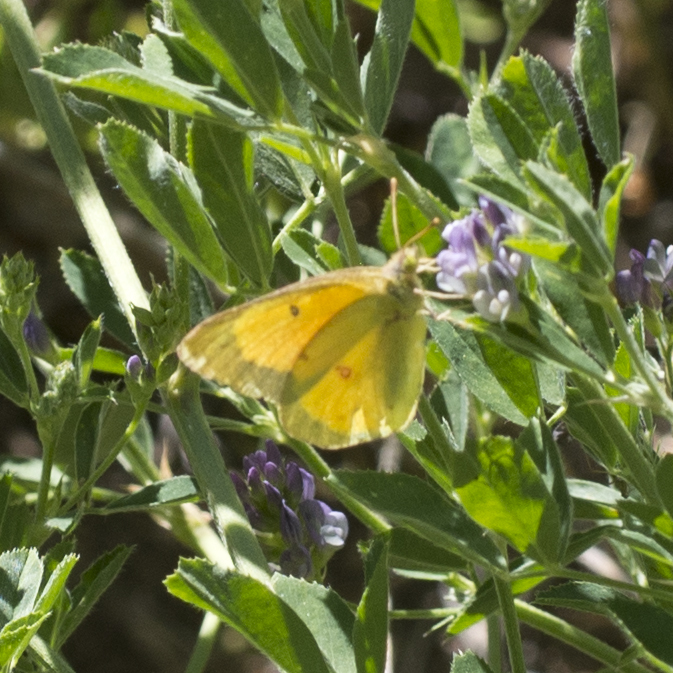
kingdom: Animalia
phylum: Arthropoda
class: Insecta
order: Lepidoptera
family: Pieridae
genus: Colias
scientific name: Colias eurytheme
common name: Alfalfa butterfly
